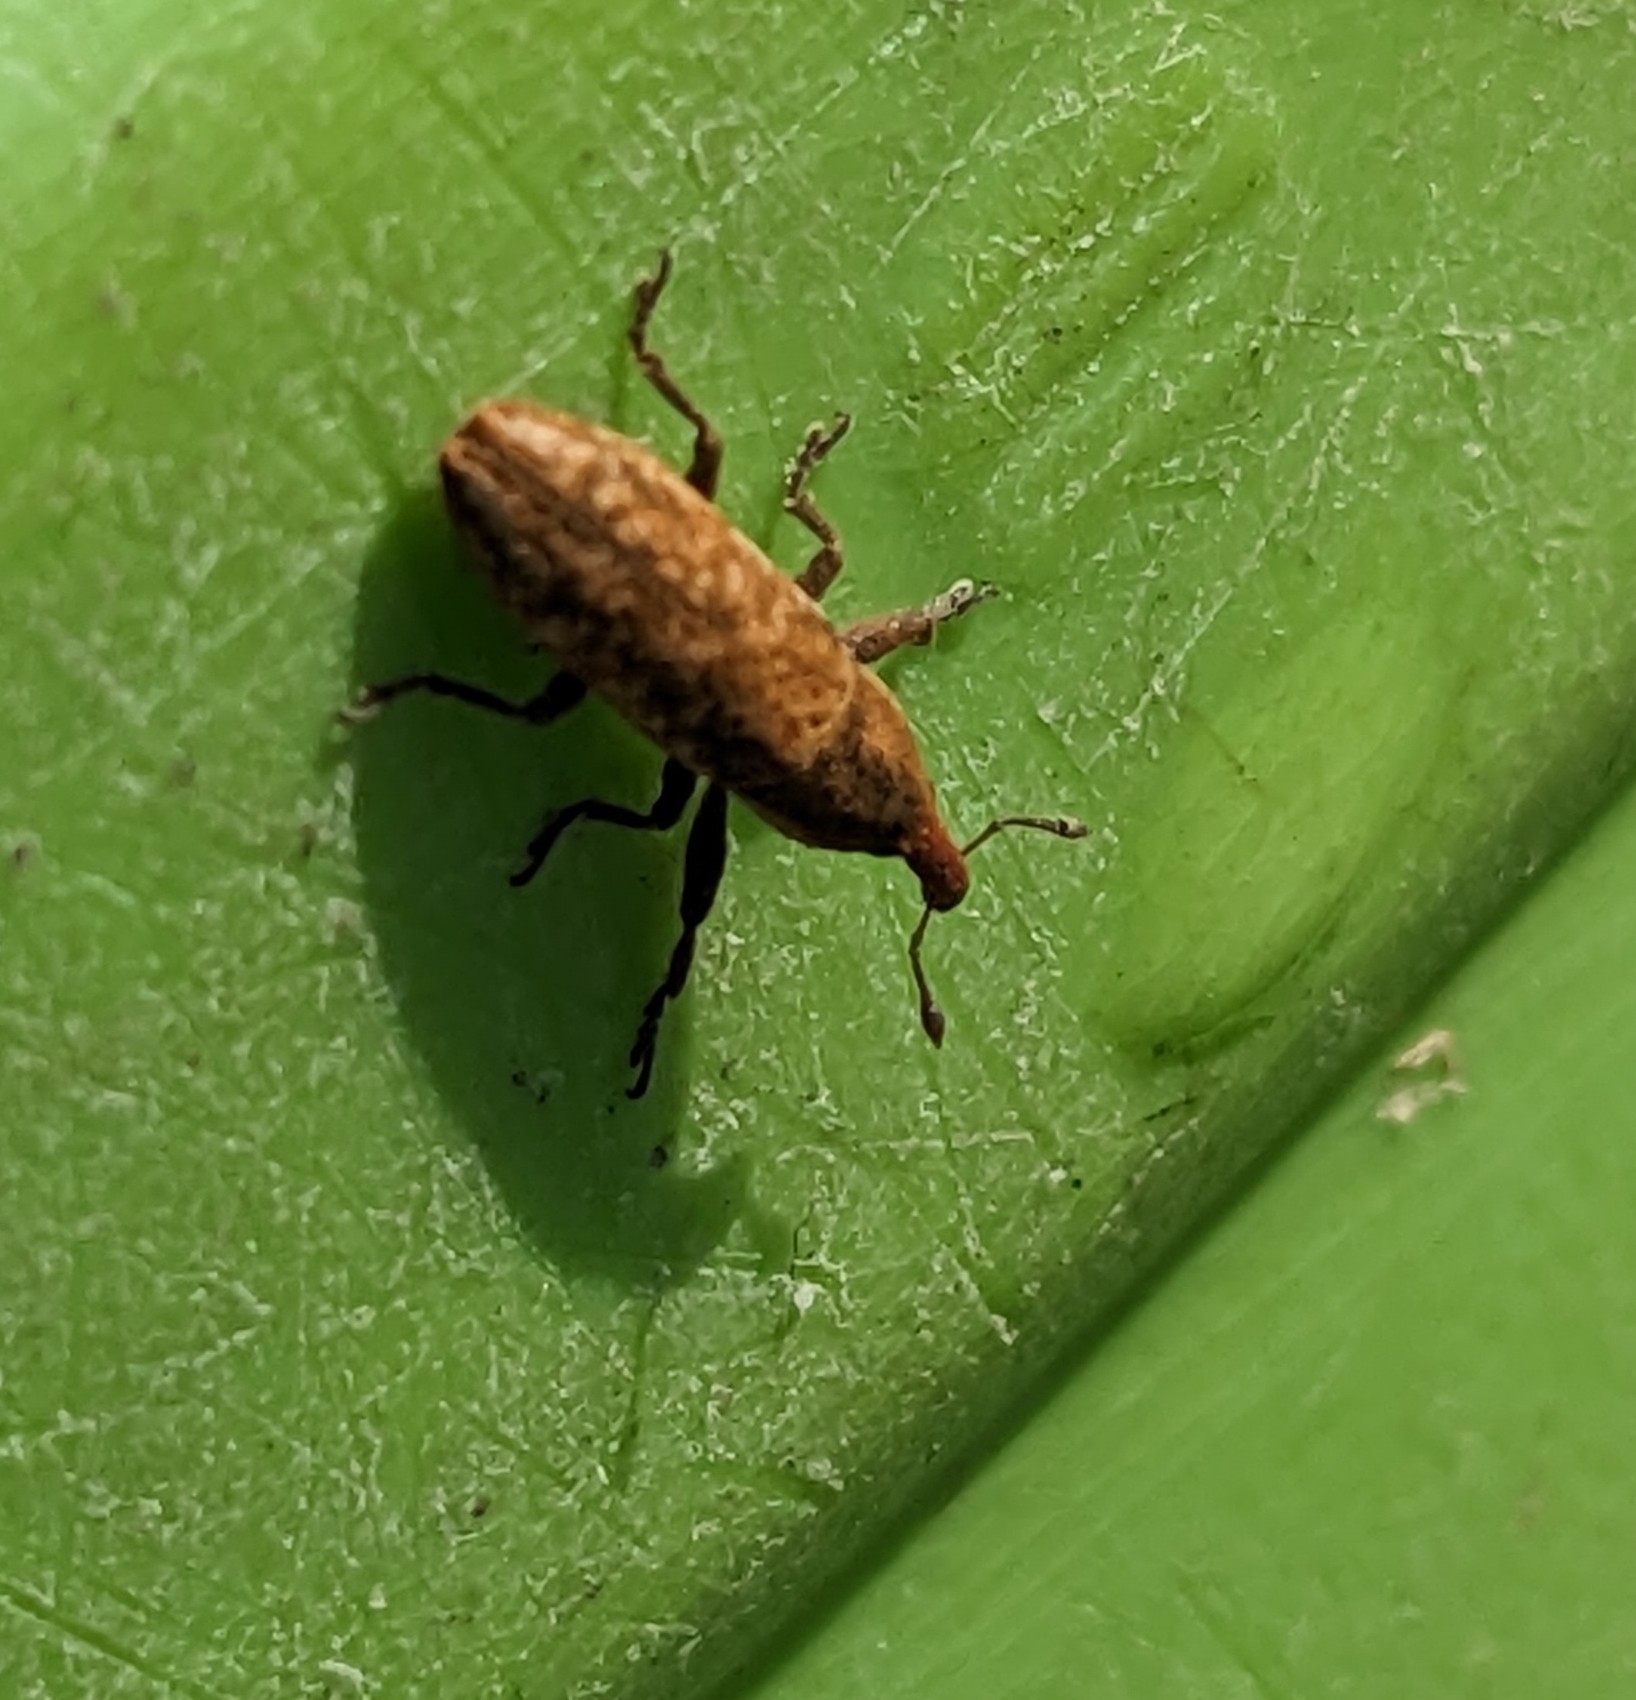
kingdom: Animalia
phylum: Arthropoda
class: Insecta
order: Coleoptera
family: Curculionidae
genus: Lixus
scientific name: Lixus subtilis
